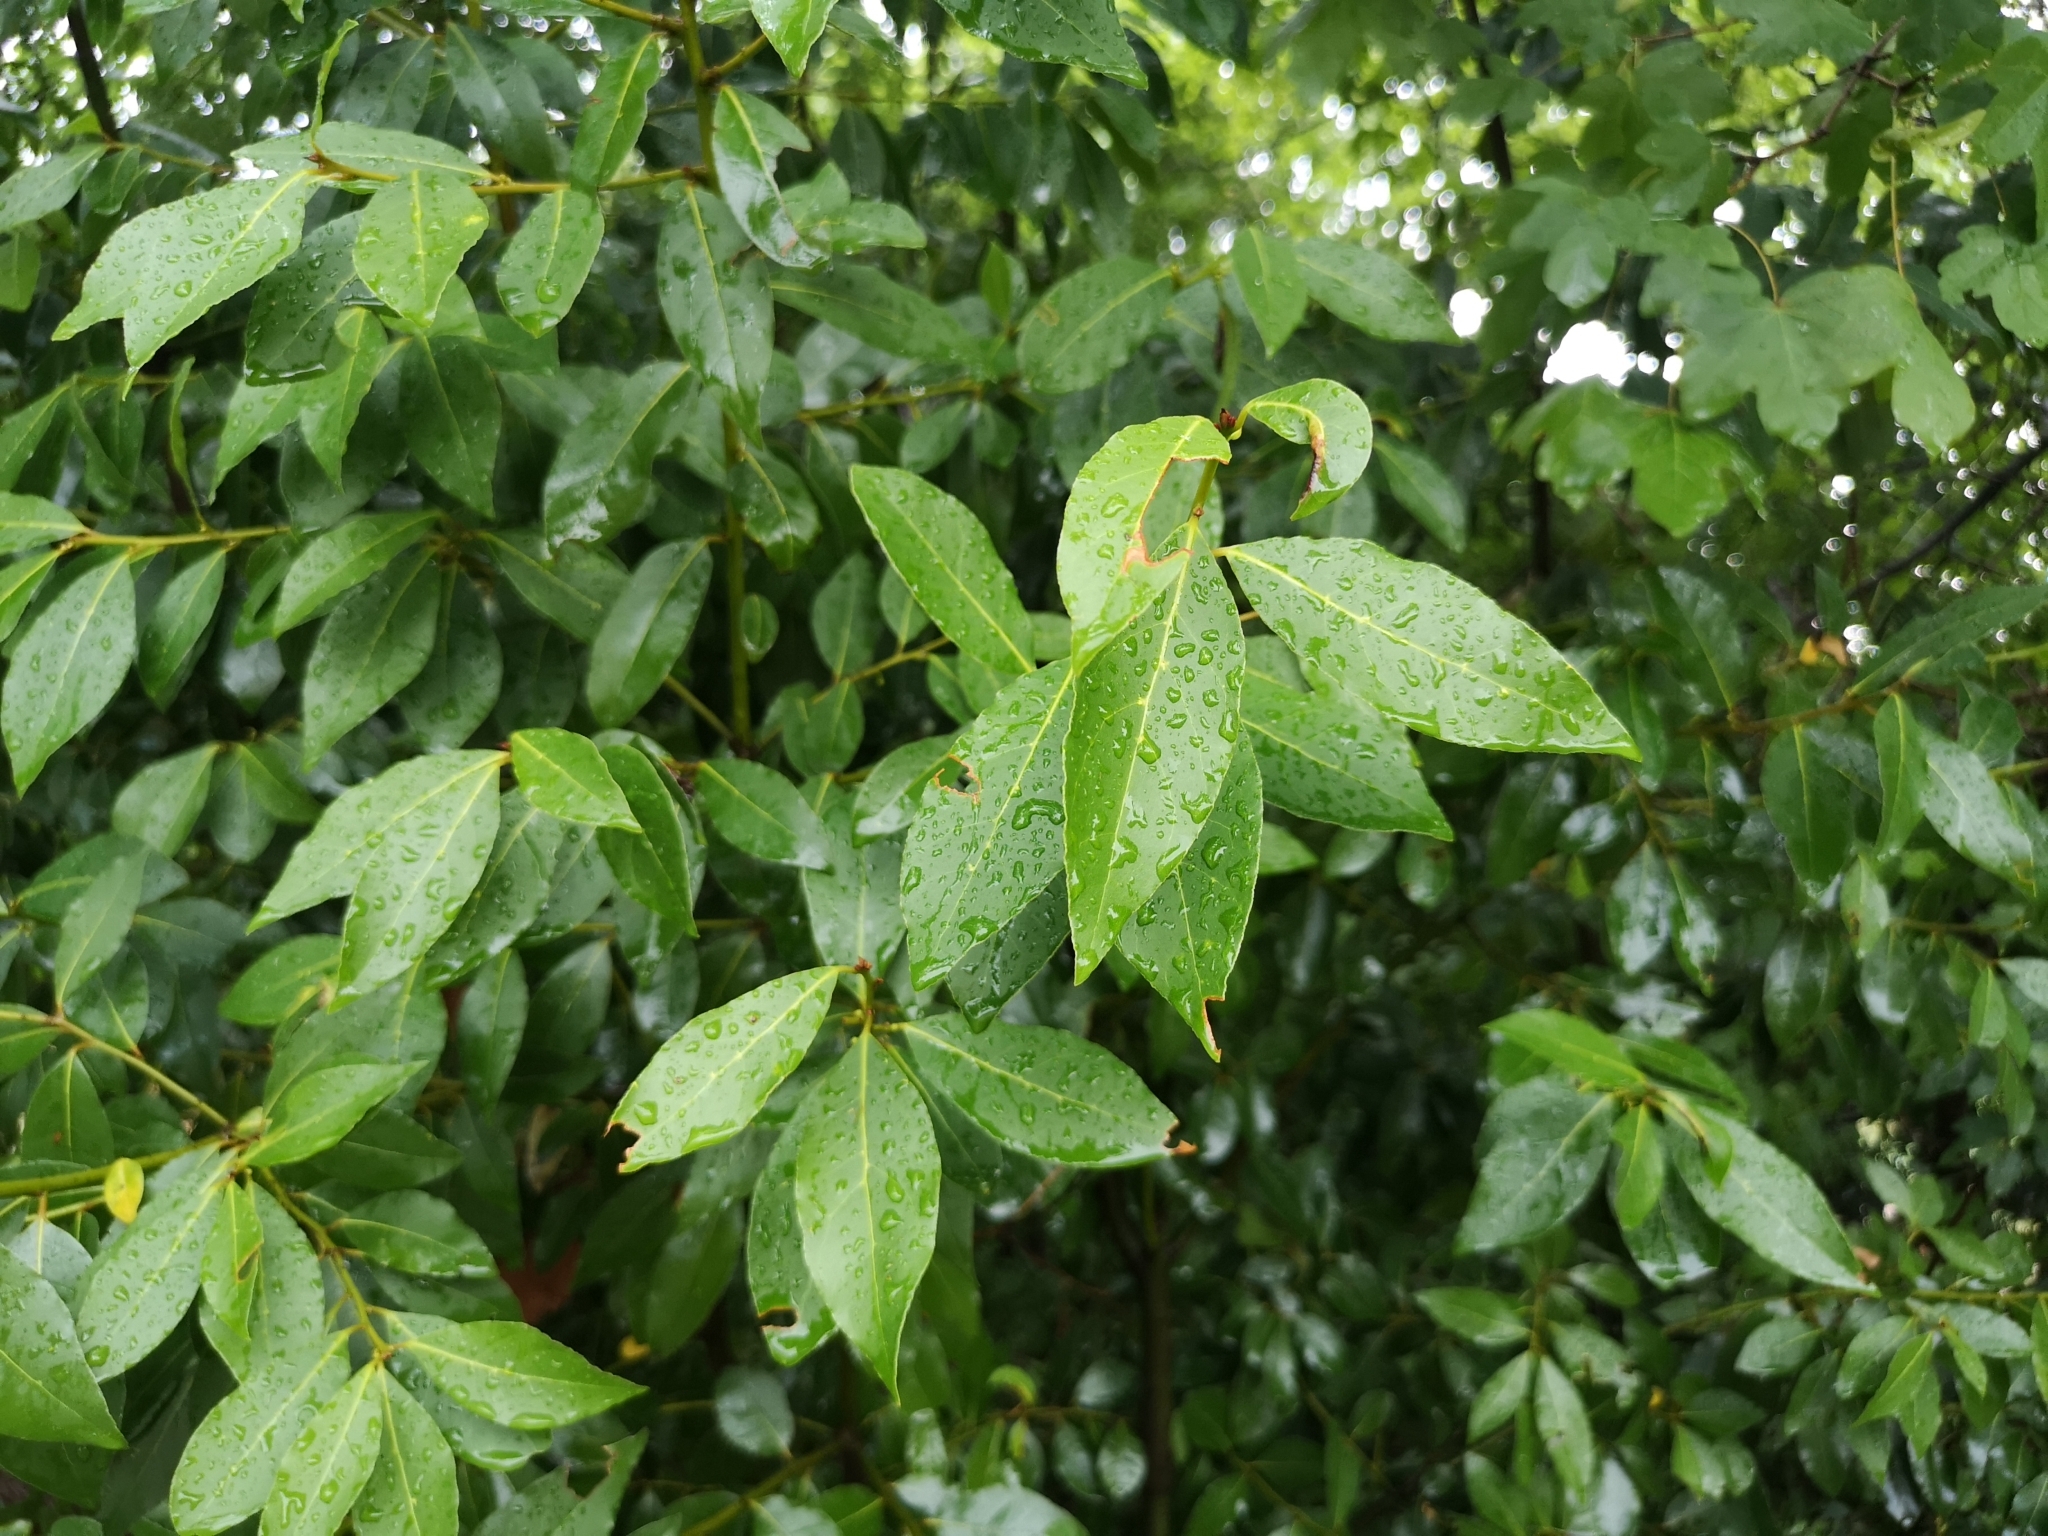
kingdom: Plantae
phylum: Tracheophyta
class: Magnoliopsida
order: Laurales
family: Lauraceae
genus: Laurus
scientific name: Laurus nobilis
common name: Bay
